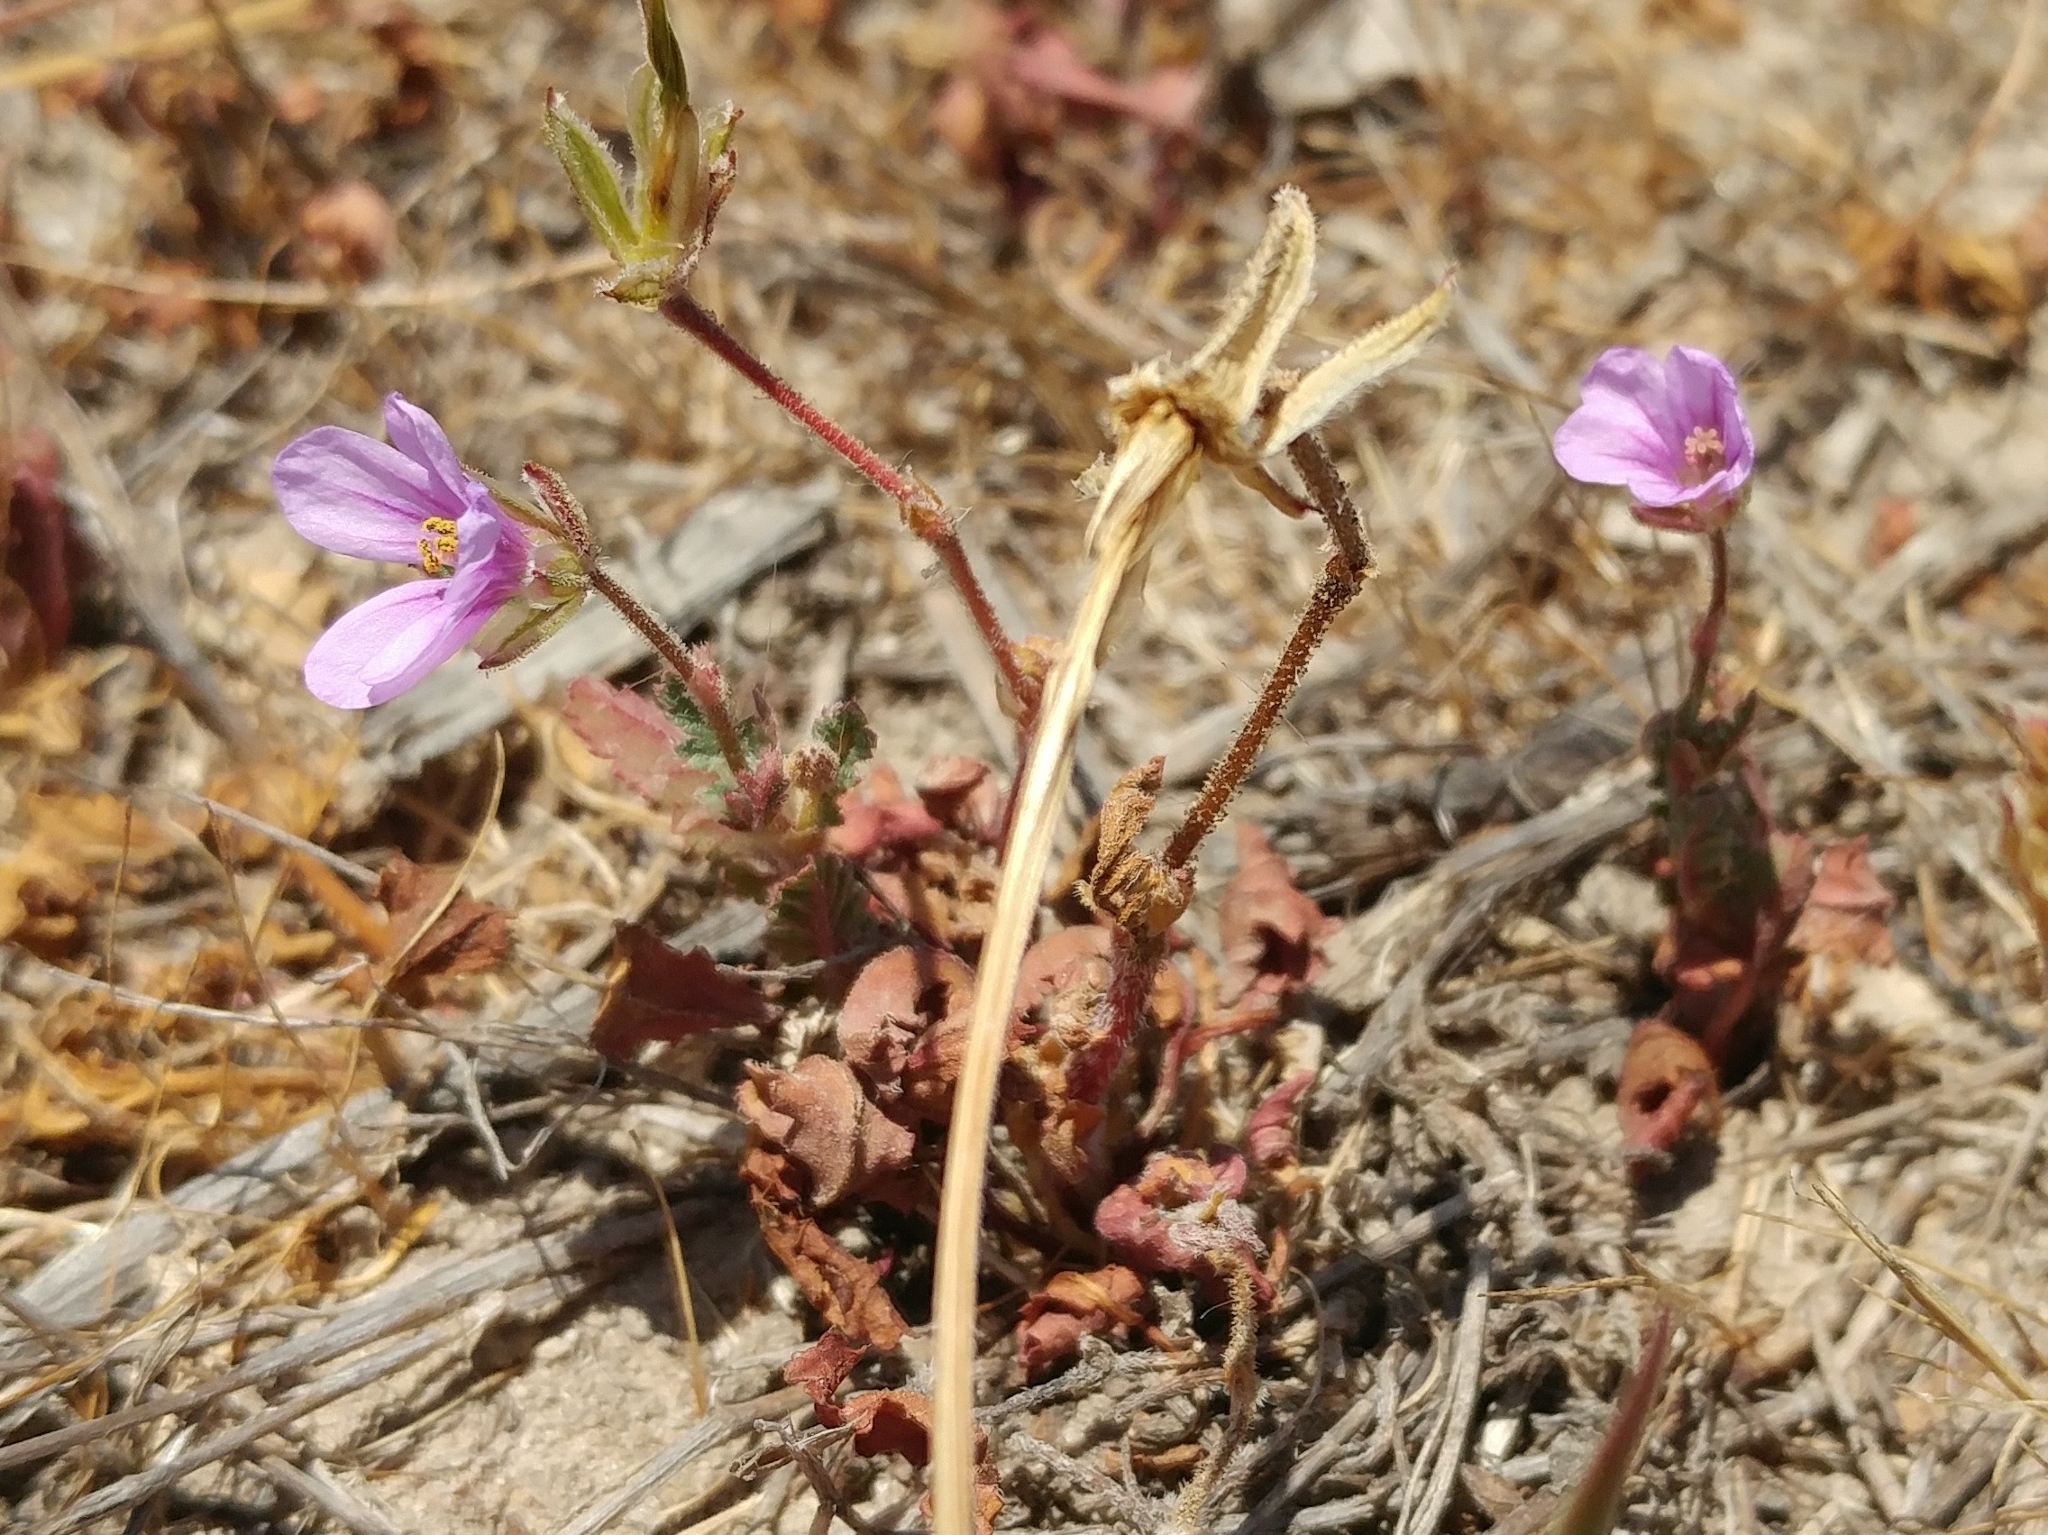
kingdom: Plantae
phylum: Tracheophyta
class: Magnoliopsida
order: Geraniales
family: Geraniaceae
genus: Erodium
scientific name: Erodium botrys
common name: Mediterranean stork's-bill
